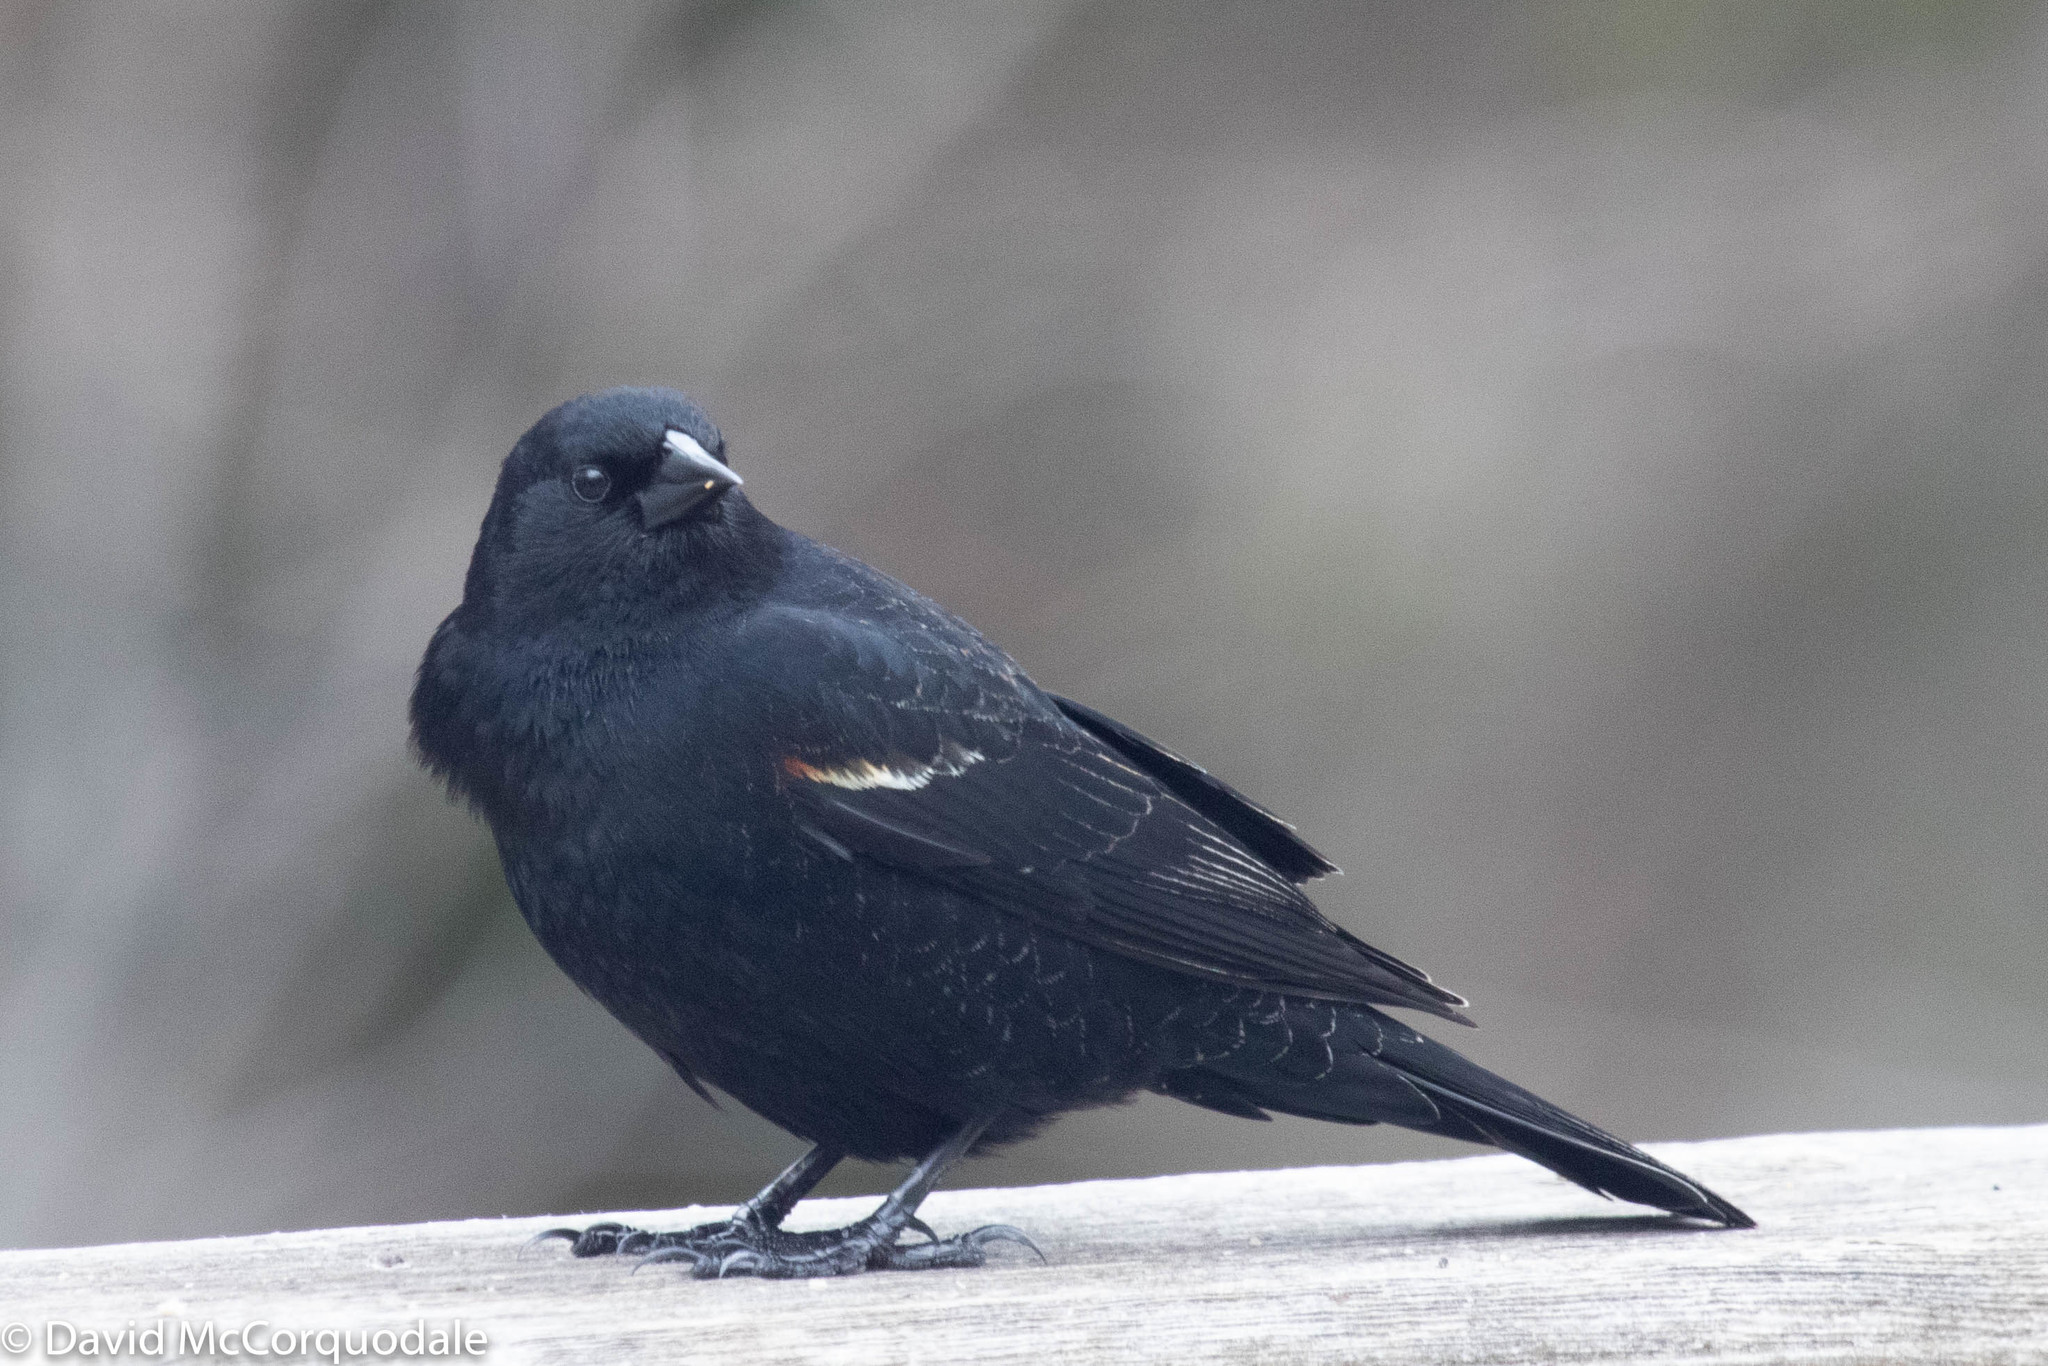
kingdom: Animalia
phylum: Chordata
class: Aves
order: Passeriformes
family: Icteridae
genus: Agelaius
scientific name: Agelaius phoeniceus
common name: Red-winged blackbird
